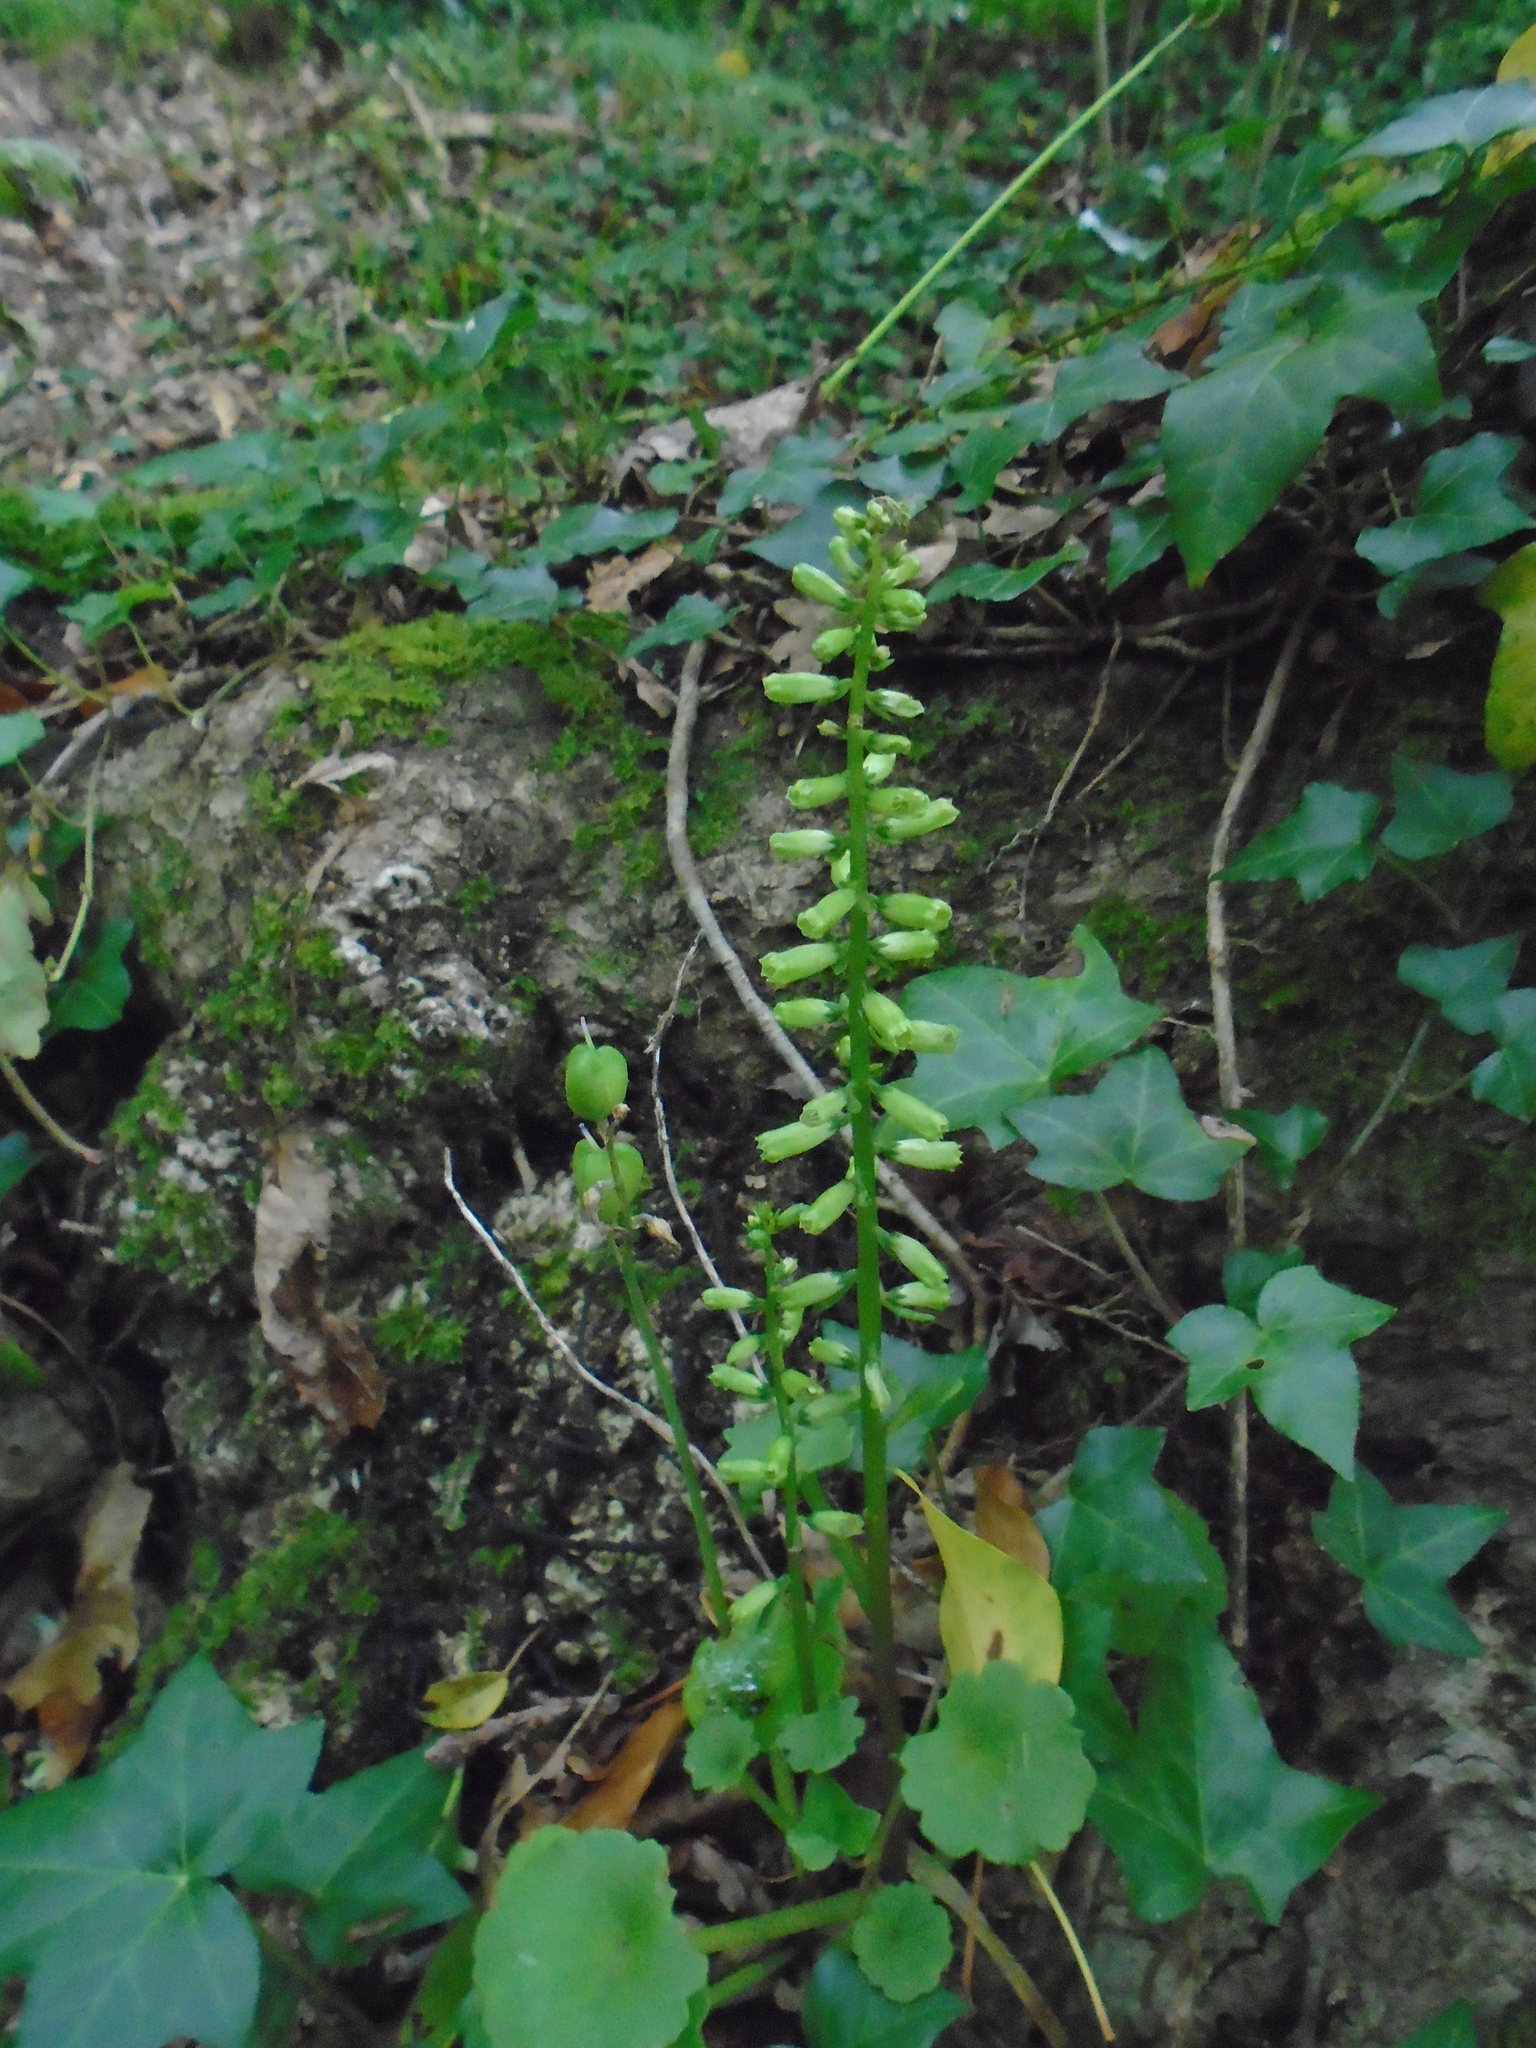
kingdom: Plantae
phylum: Tracheophyta
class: Magnoliopsida
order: Saxifragales
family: Crassulaceae
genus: Umbilicus
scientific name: Umbilicus rupestris
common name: Navelwort
